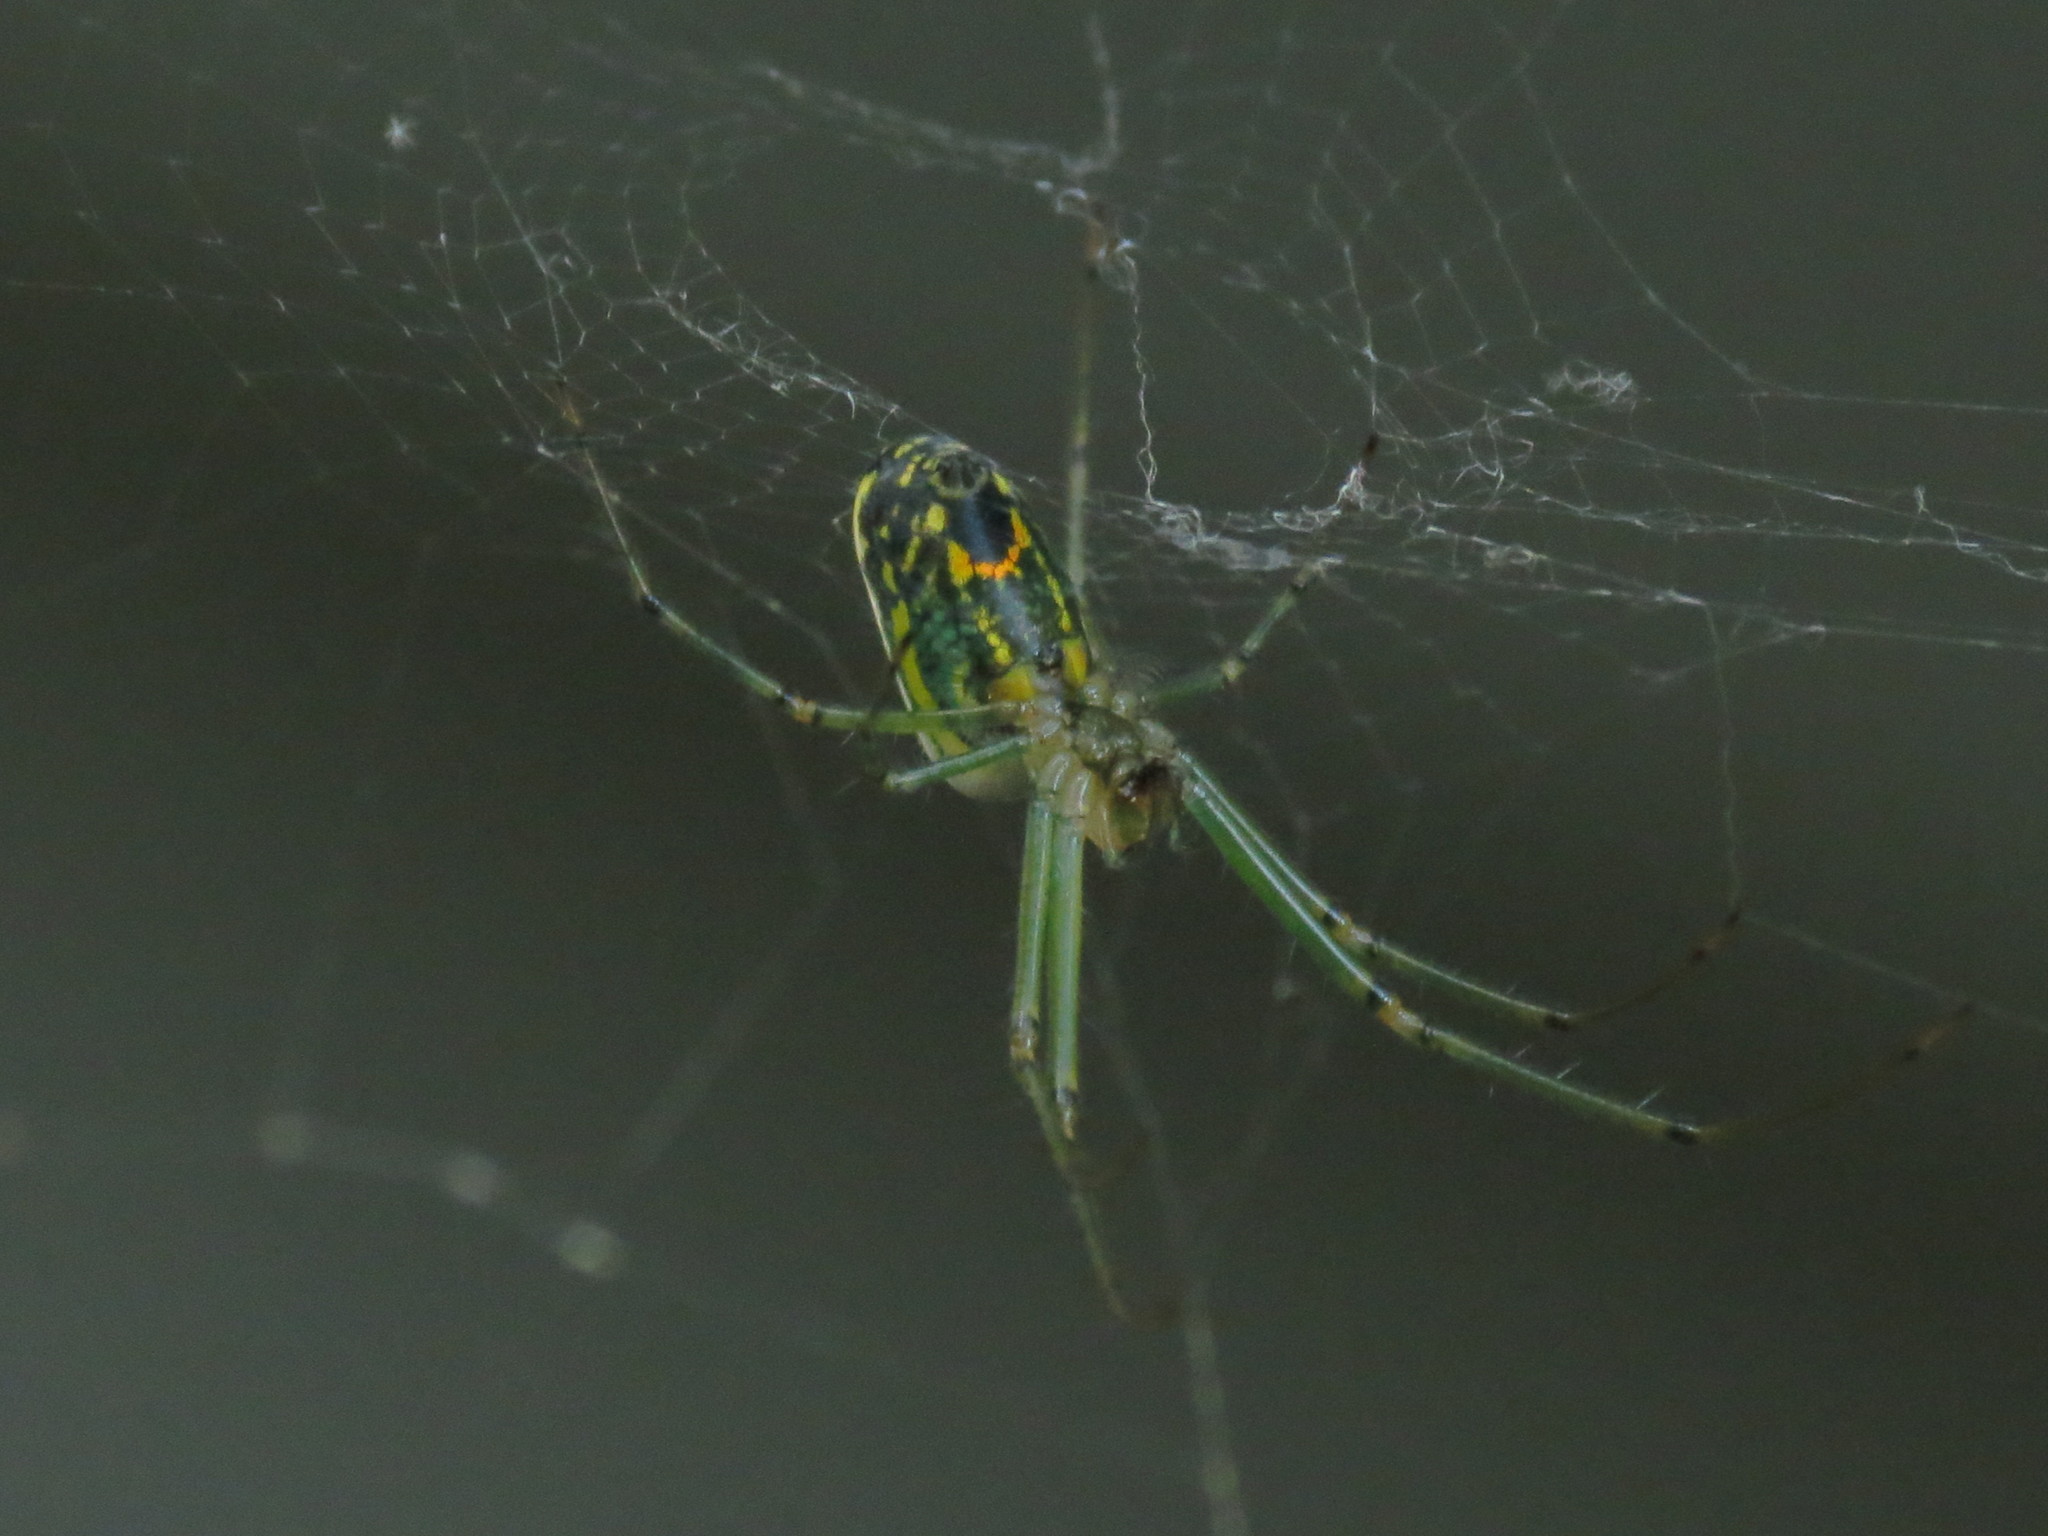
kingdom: Animalia
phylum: Arthropoda
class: Arachnida
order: Araneae
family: Tetragnathidae
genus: Leucauge
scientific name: Leucauge venusta
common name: Longjawed orb weavers
